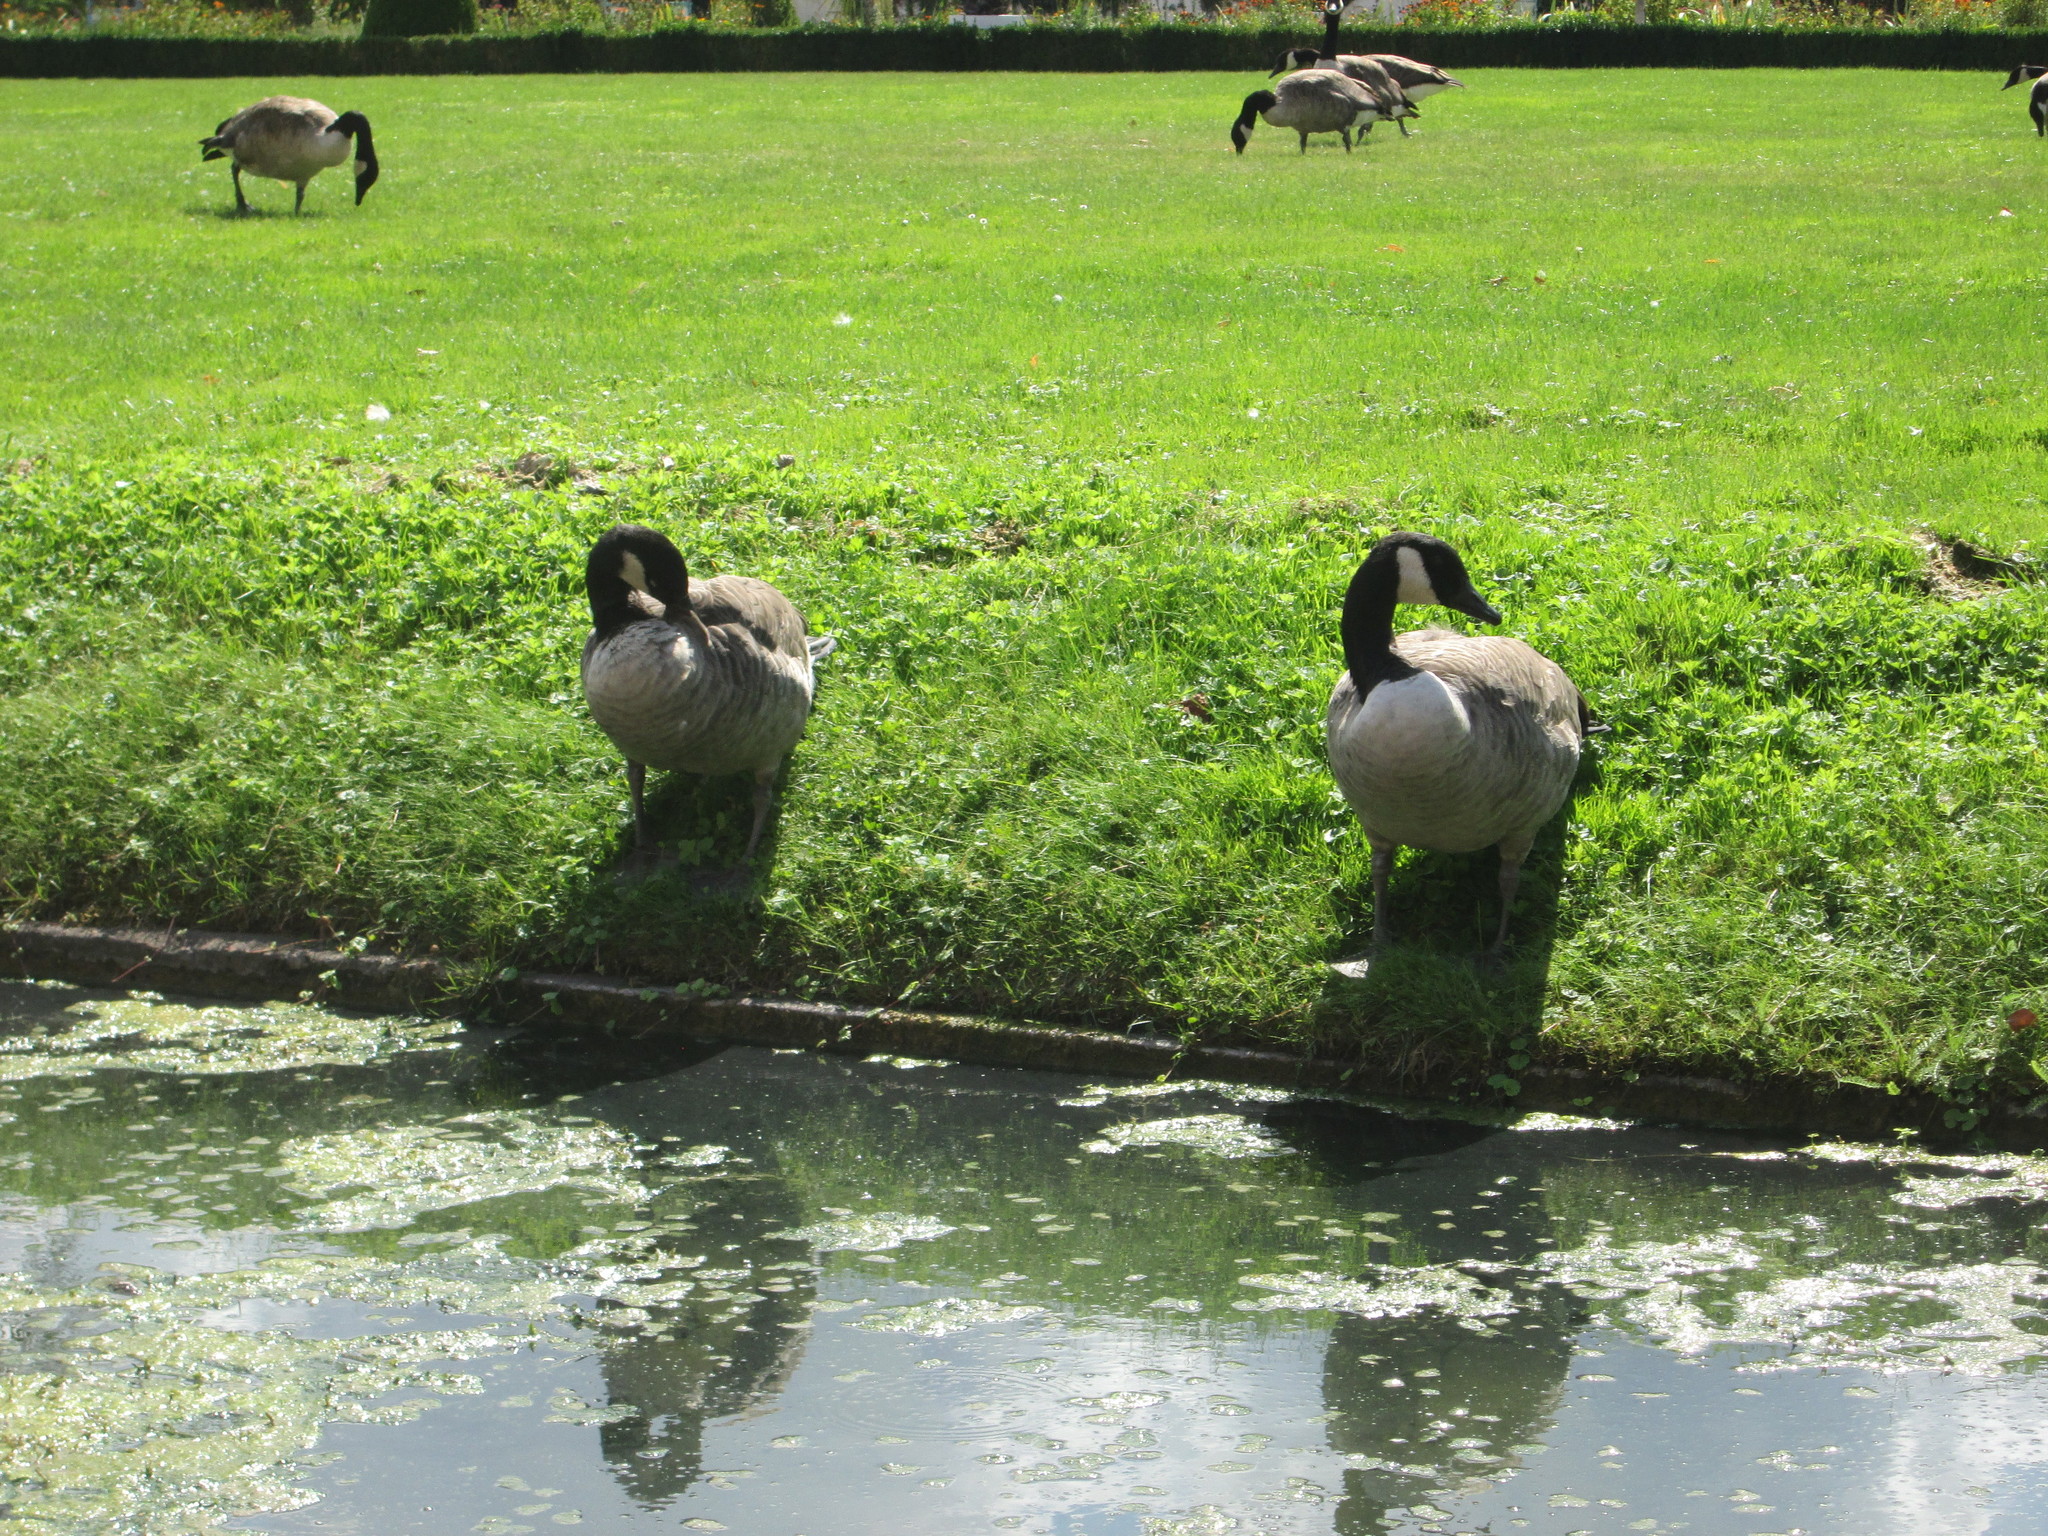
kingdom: Animalia
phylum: Chordata
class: Aves
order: Anseriformes
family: Anatidae
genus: Branta
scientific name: Branta canadensis
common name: Canada goose
